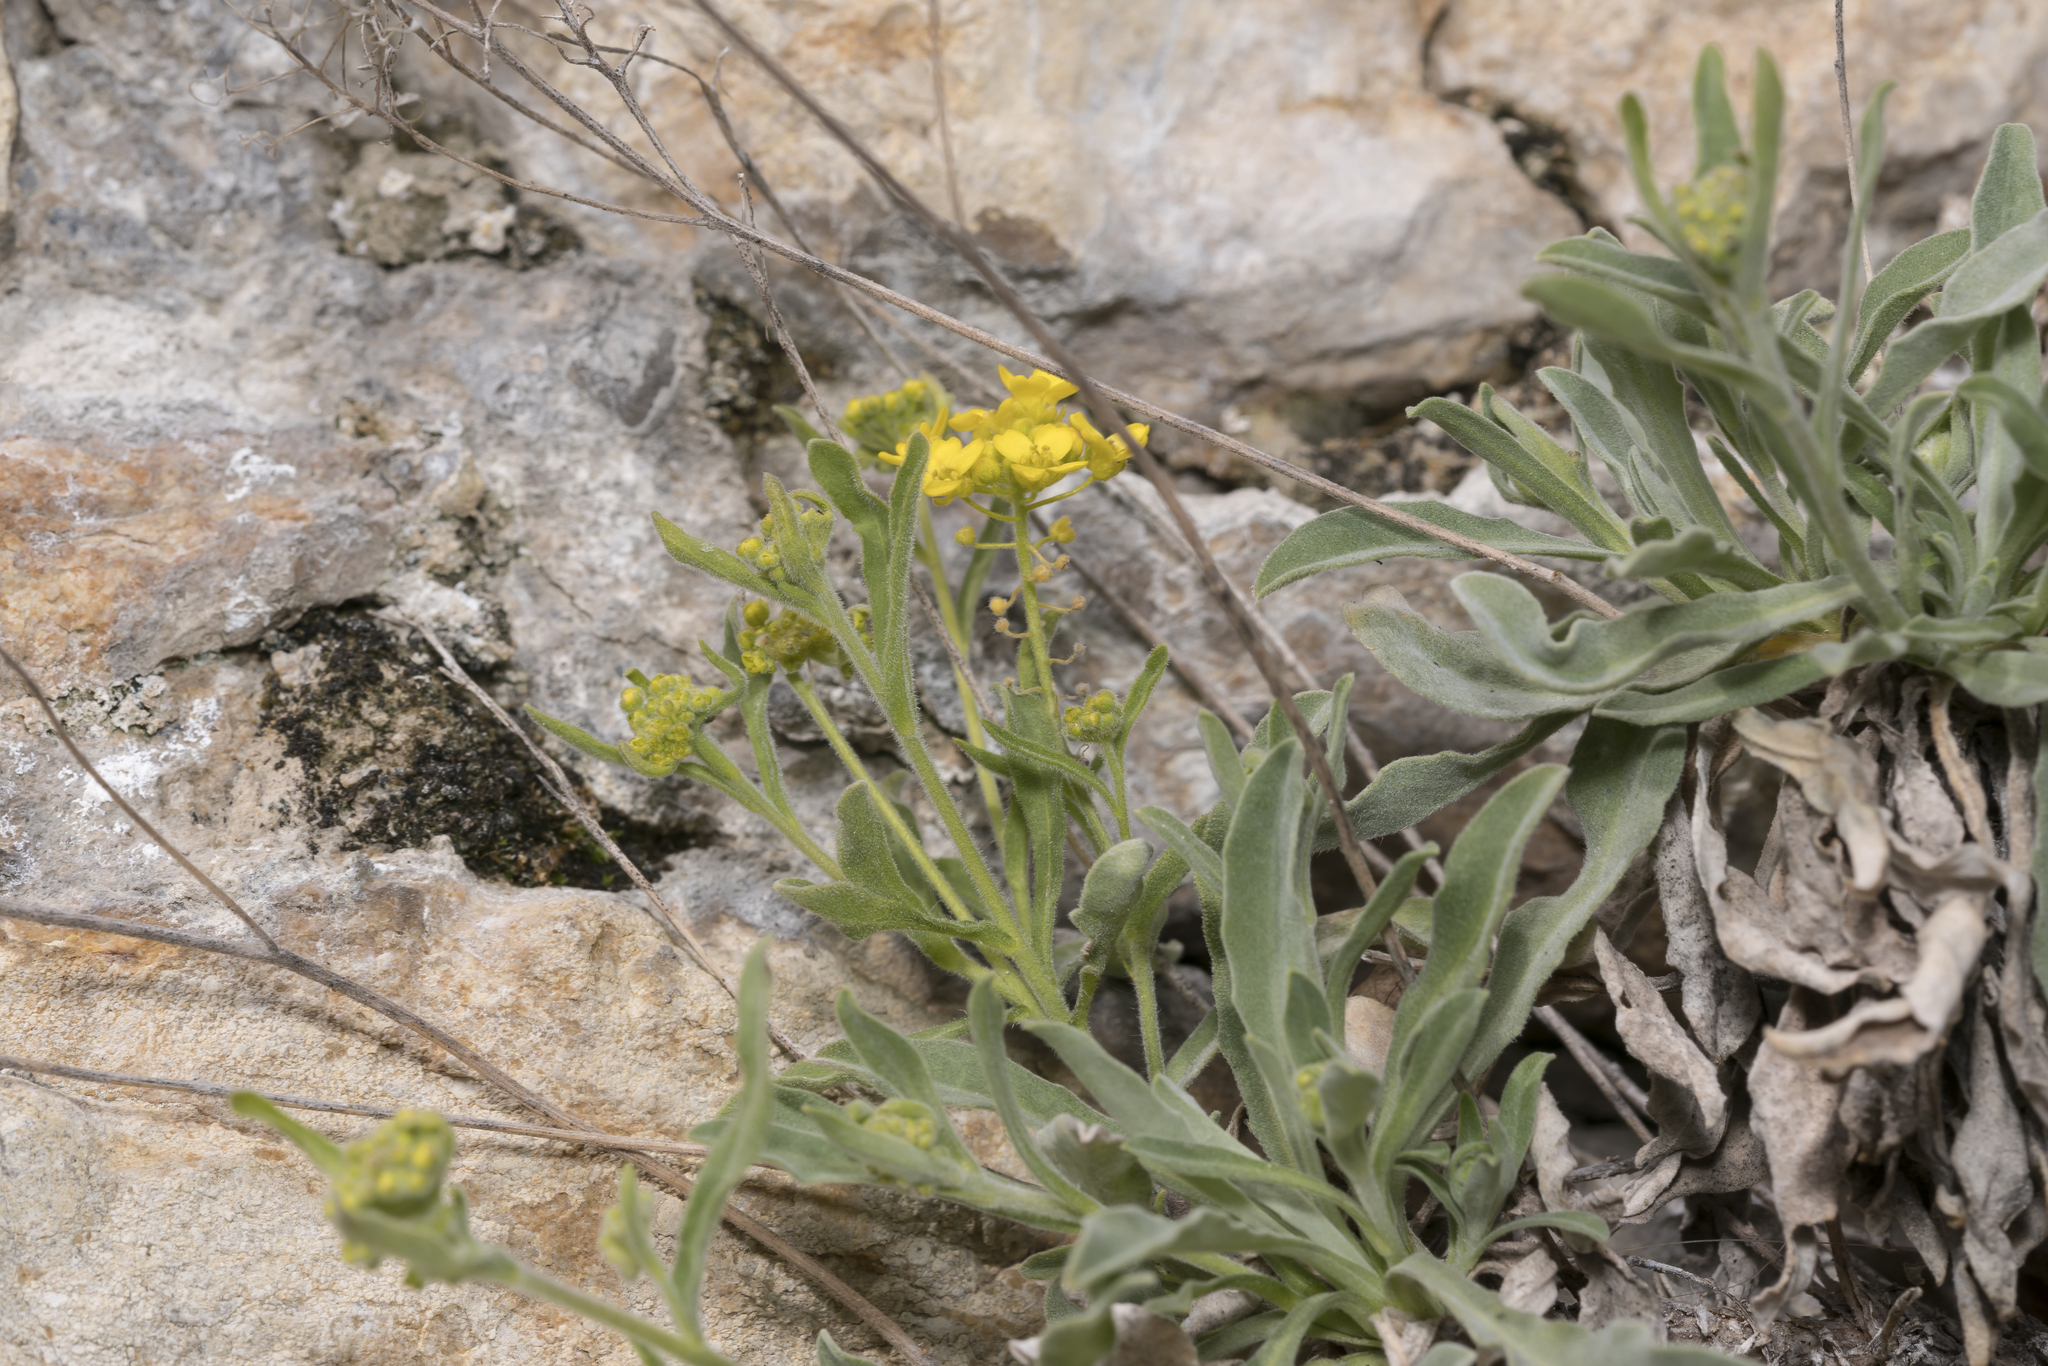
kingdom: Plantae
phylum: Tracheophyta
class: Magnoliopsida
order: Brassicales
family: Brassicaceae
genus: Aurinia
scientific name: Aurinia saxatilis
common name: Golden-tuft alyssum
